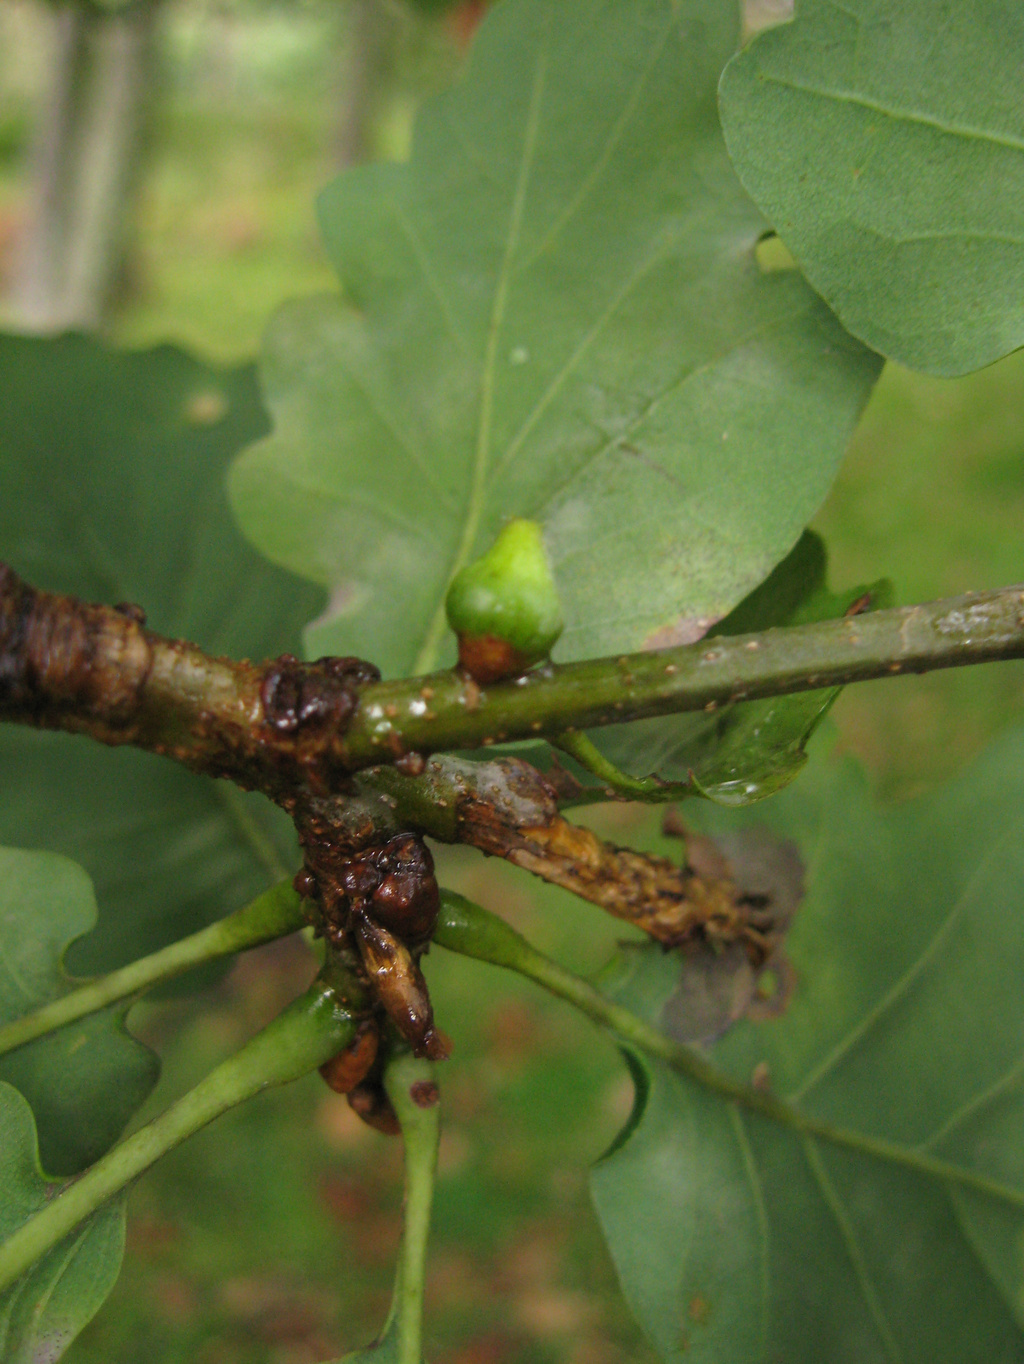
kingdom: Animalia
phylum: Arthropoda
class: Insecta
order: Hymenoptera
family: Cynipidae
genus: Andricus
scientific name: Andricus glandulae
